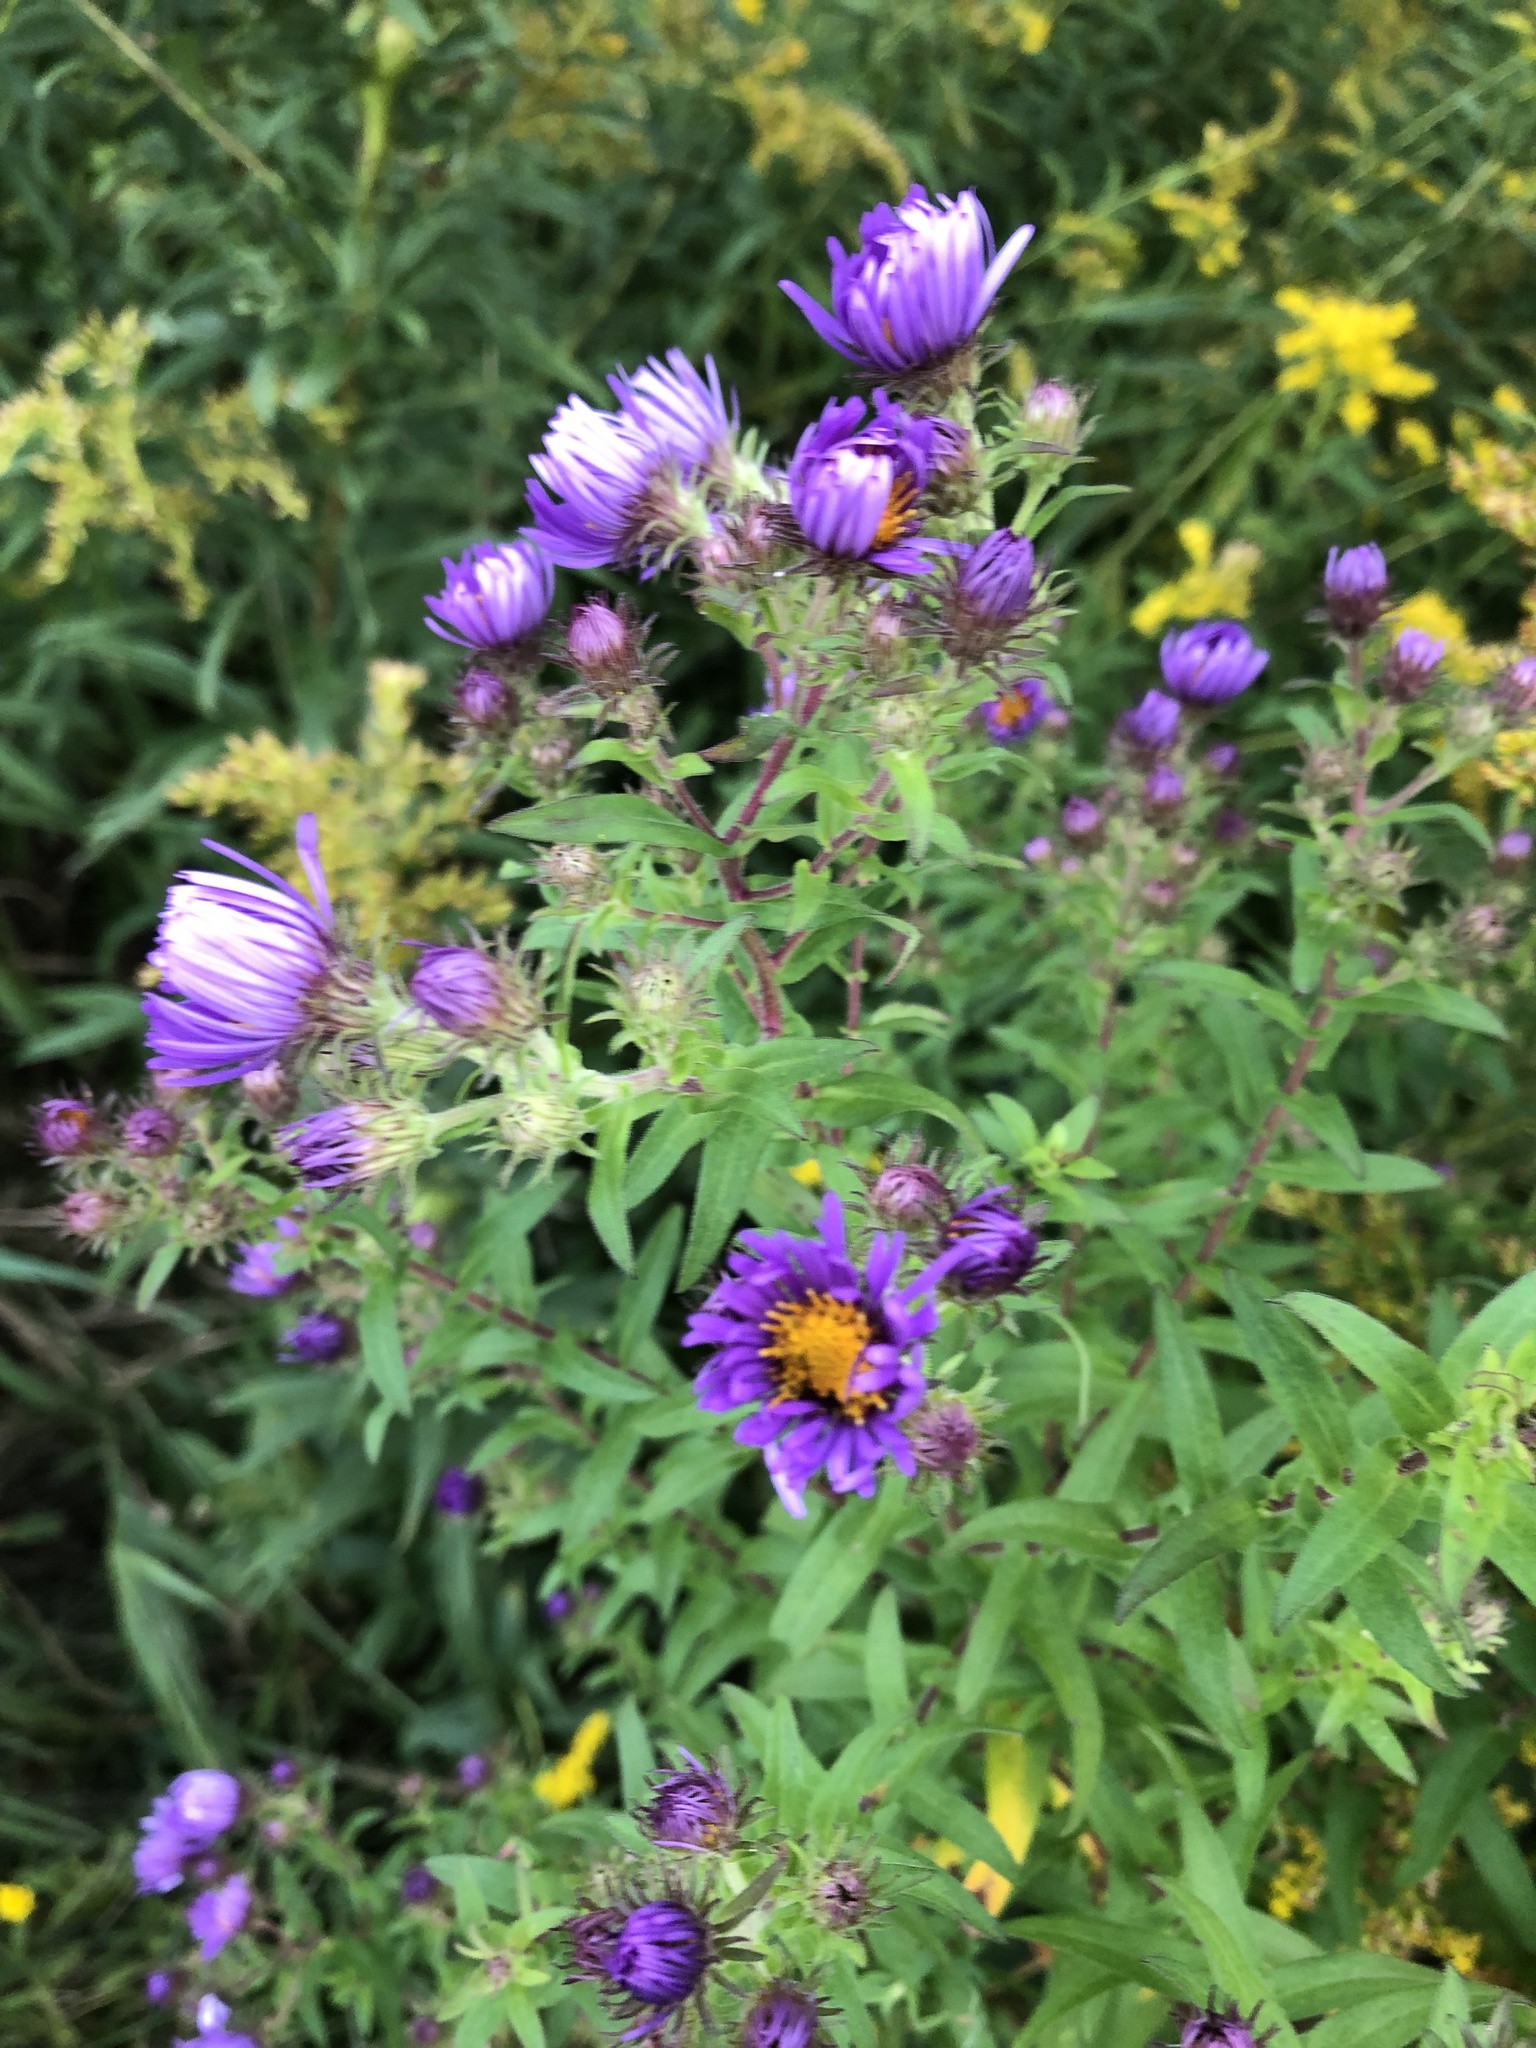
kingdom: Plantae
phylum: Tracheophyta
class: Magnoliopsida
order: Asterales
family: Asteraceae
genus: Symphyotrichum
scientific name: Symphyotrichum novae-angliae
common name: Michaelmas daisy
